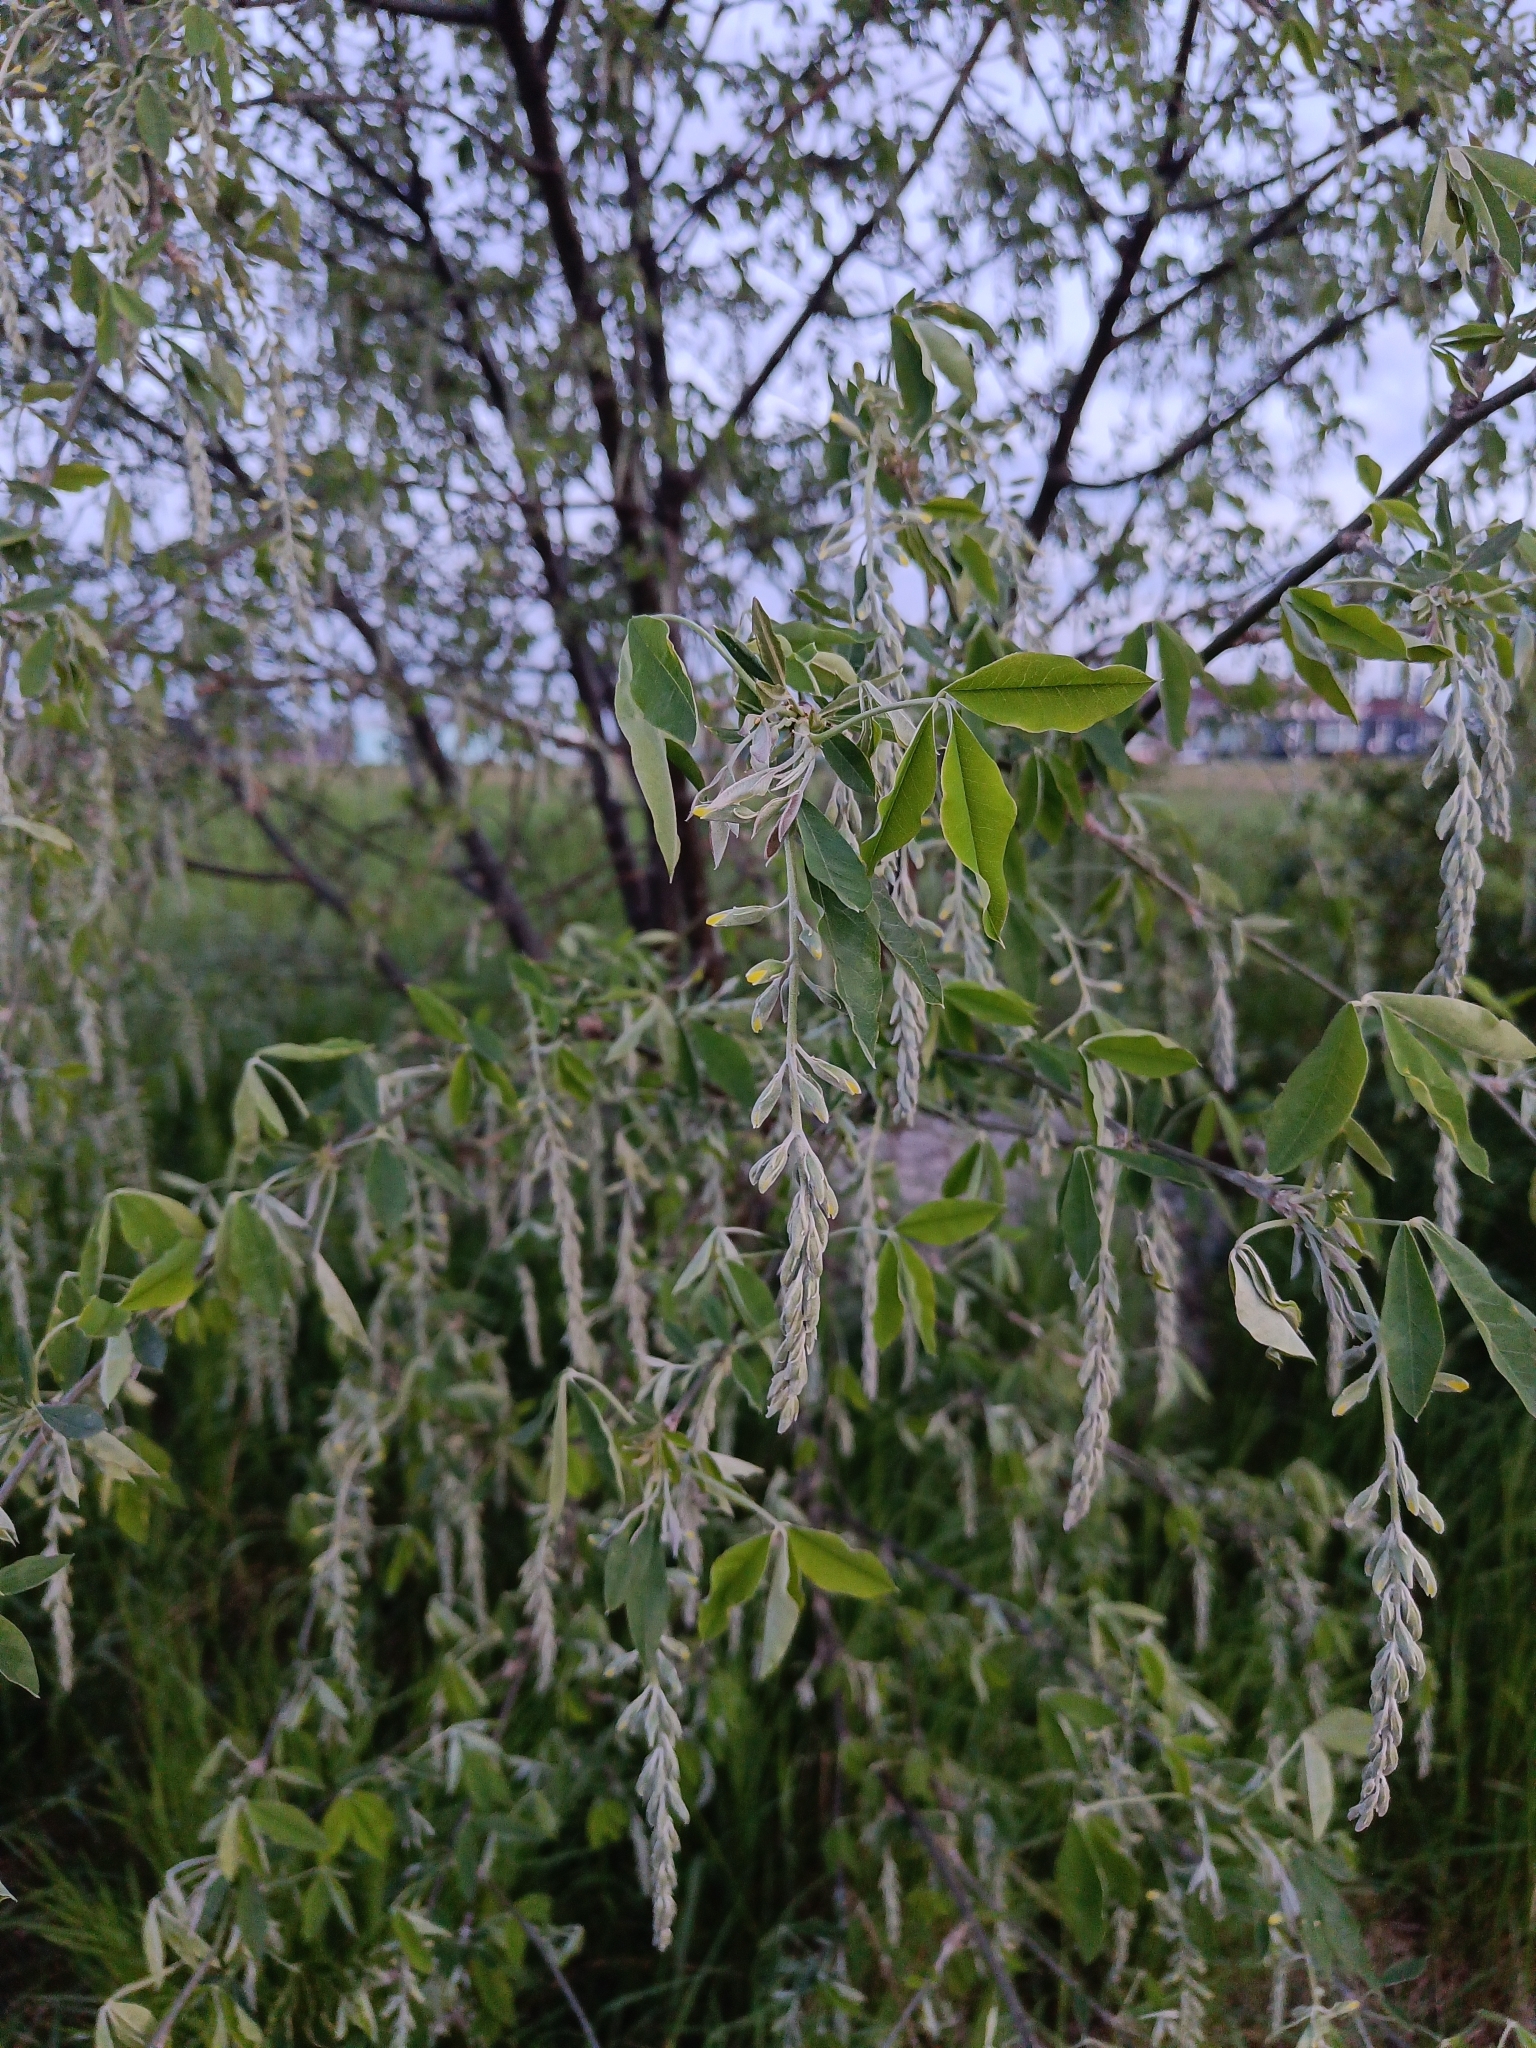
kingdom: Plantae
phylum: Tracheophyta
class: Magnoliopsida
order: Fabales
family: Fabaceae
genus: Laburnum
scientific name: Laburnum anagyroides
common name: Laburnum
